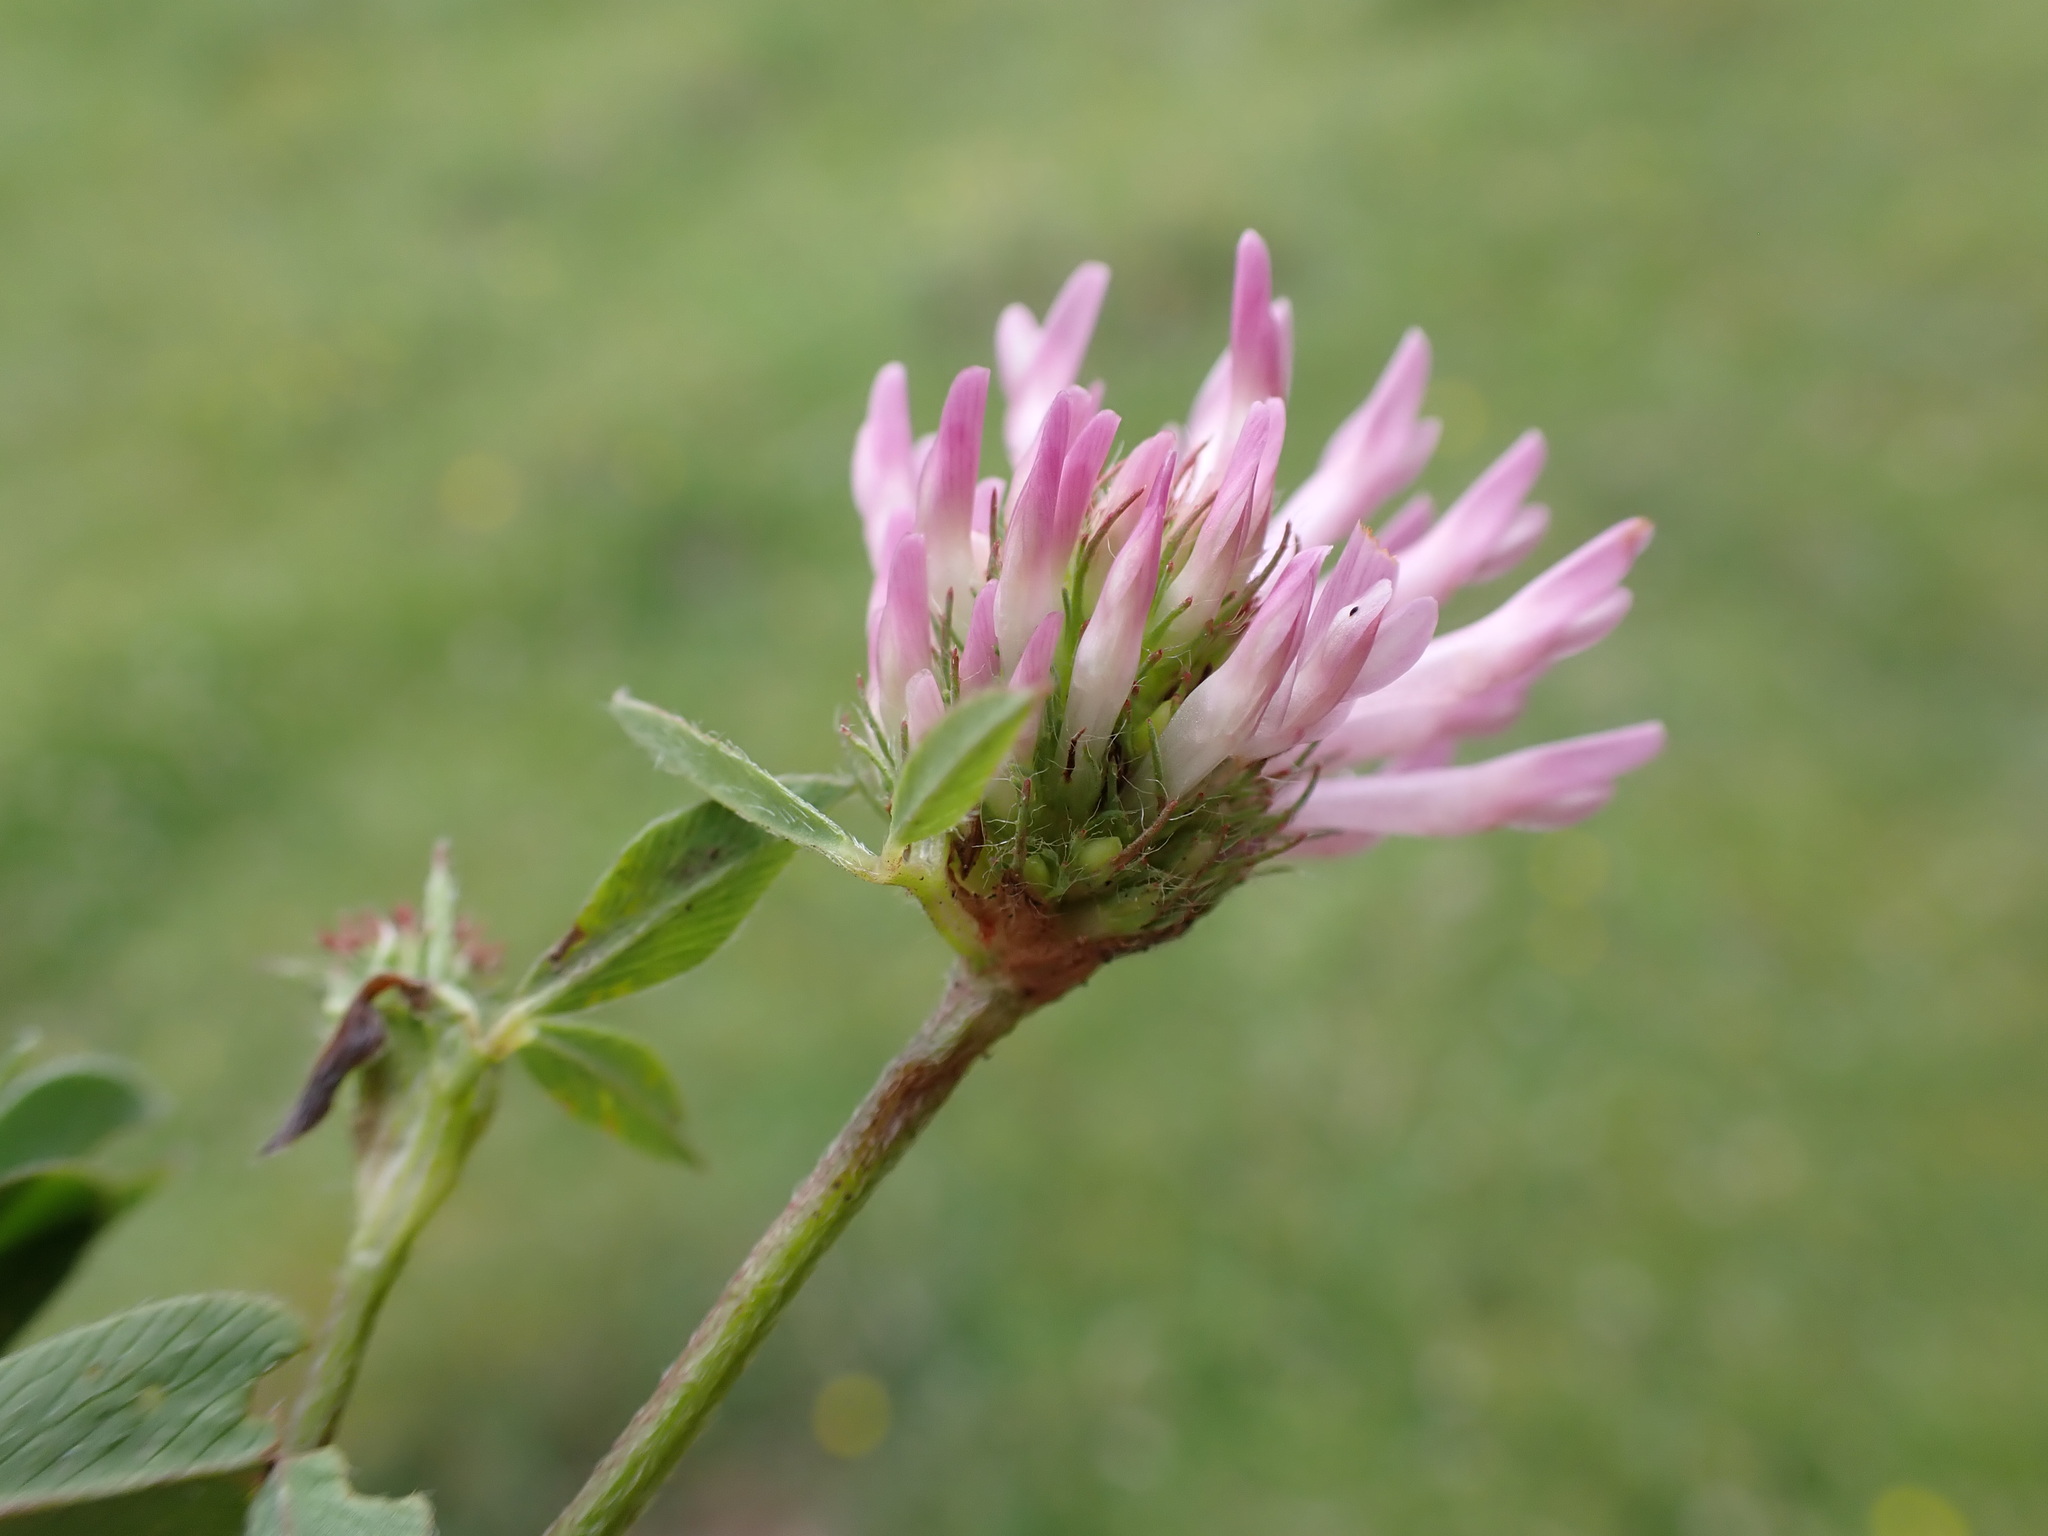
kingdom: Plantae
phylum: Tracheophyta
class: Magnoliopsida
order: Fabales
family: Fabaceae
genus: Trifolium
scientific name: Trifolium pratense
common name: Red clover
